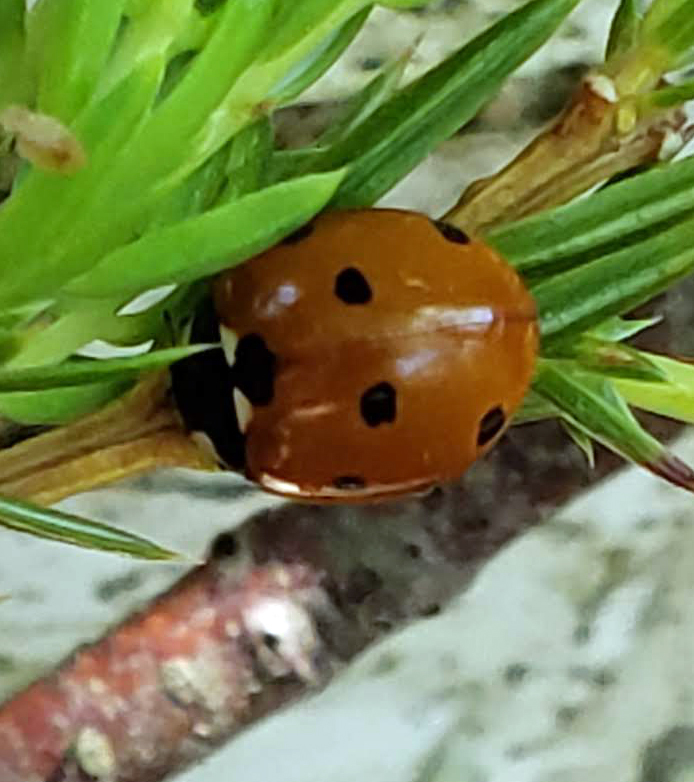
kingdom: Animalia
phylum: Arthropoda
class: Insecta
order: Coleoptera
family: Coccinellidae
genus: Coccinella
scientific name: Coccinella septempunctata
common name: Sevenspotted lady beetle
